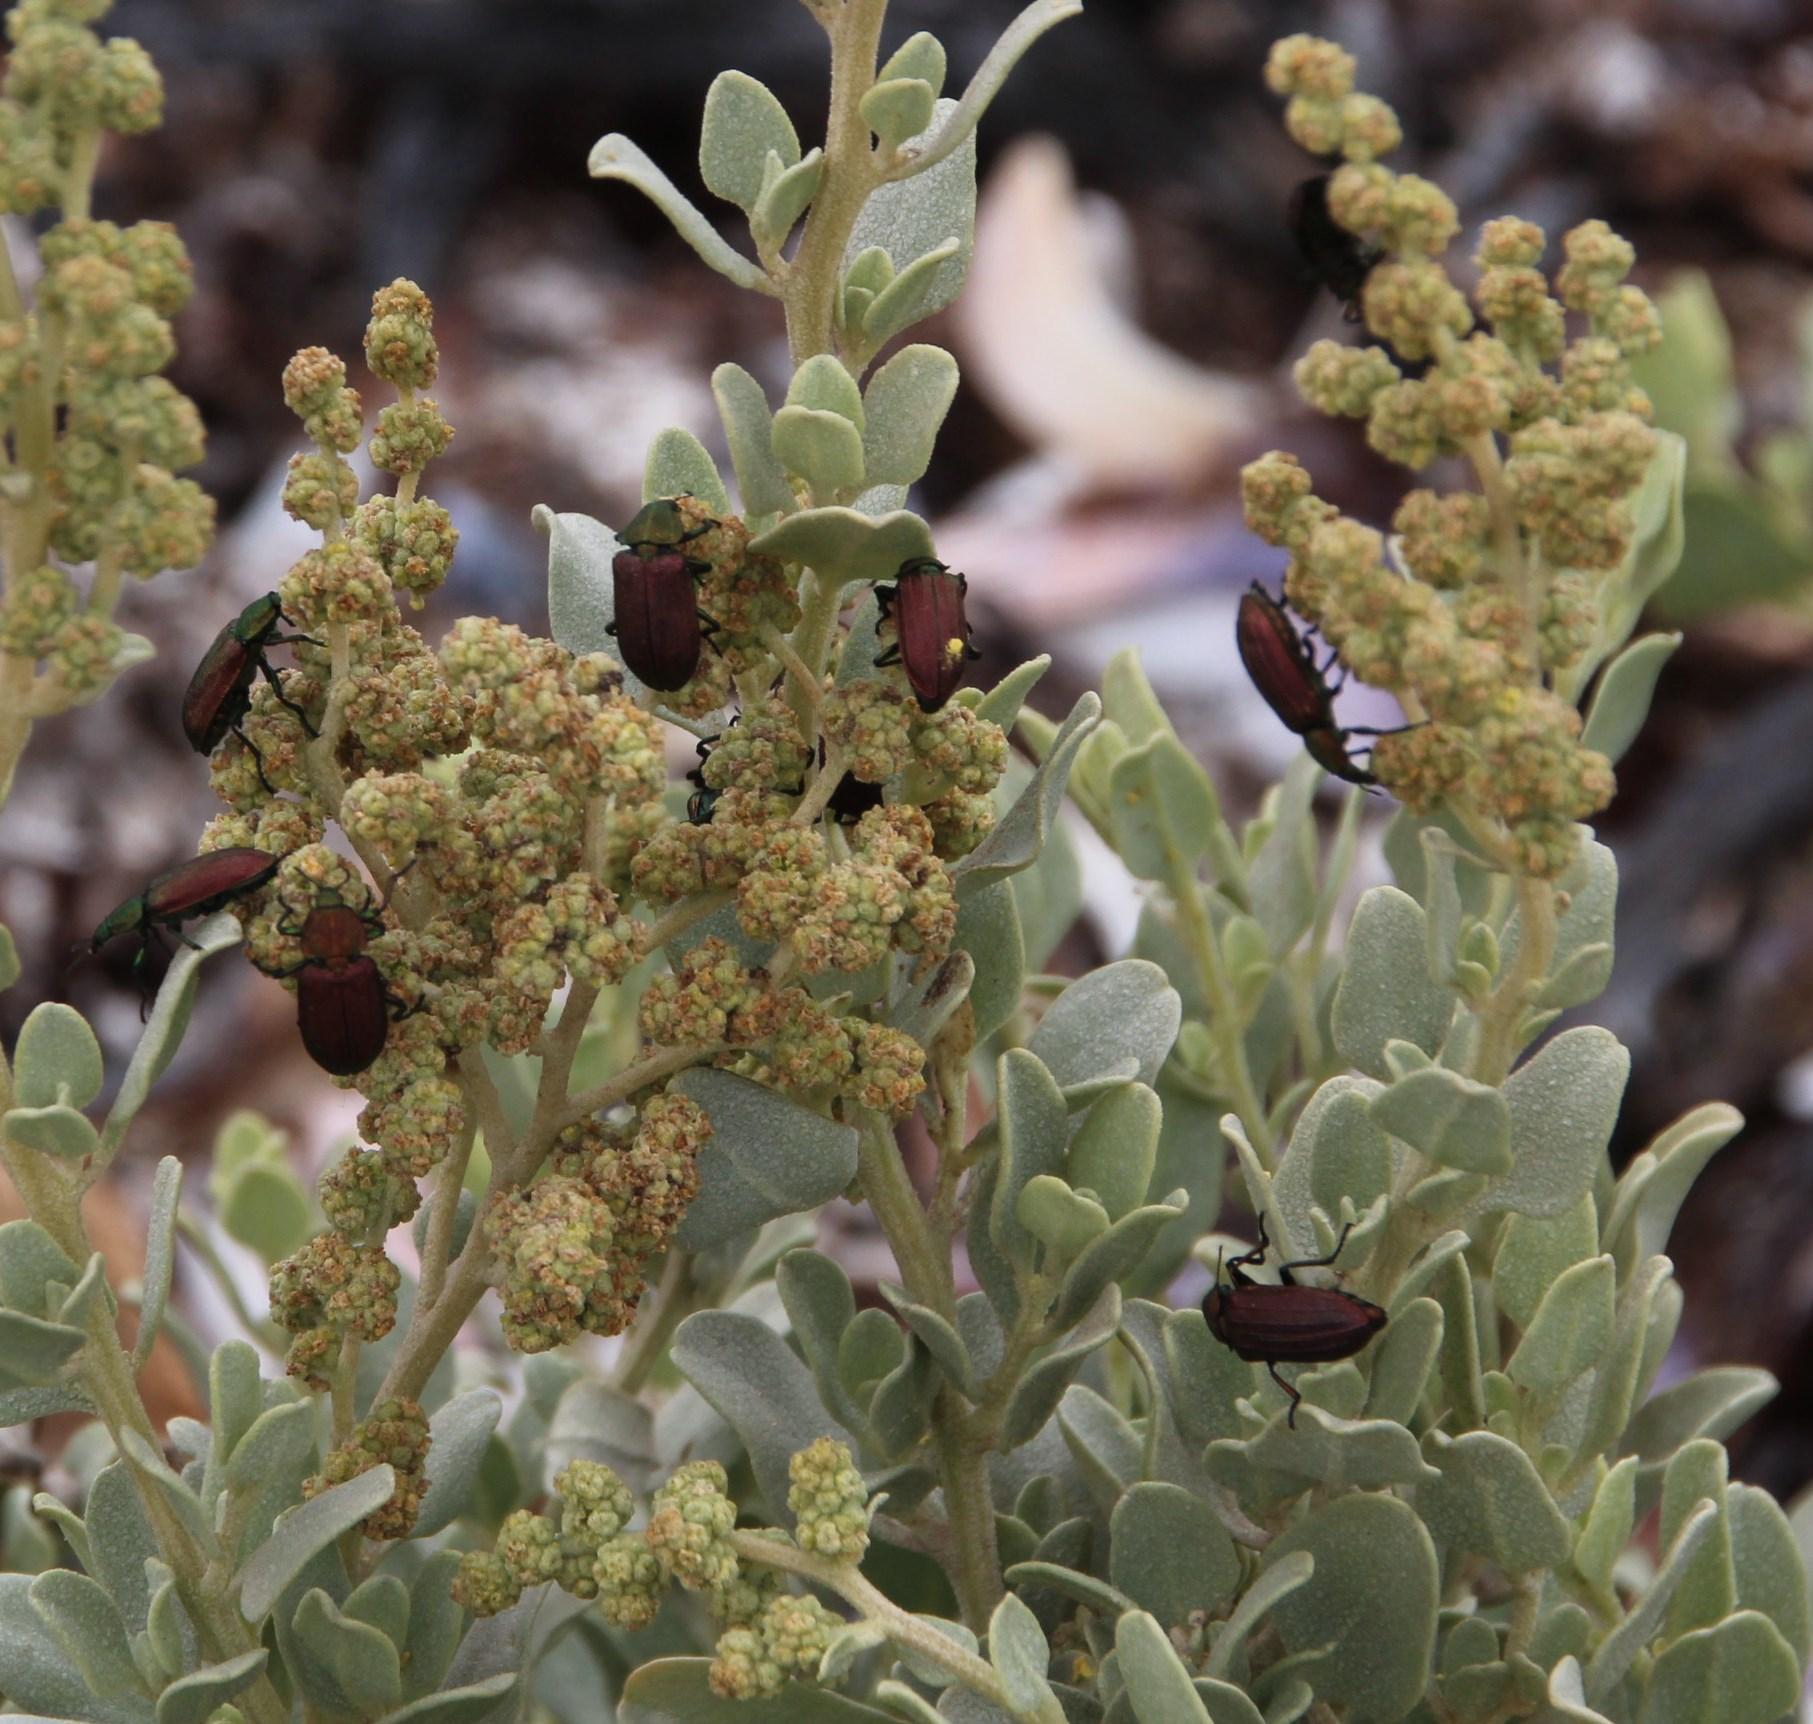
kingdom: Plantae
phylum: Tracheophyta
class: Magnoliopsida
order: Caryophyllales
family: Amaranthaceae
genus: Atriplex
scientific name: Atriplex vestita
